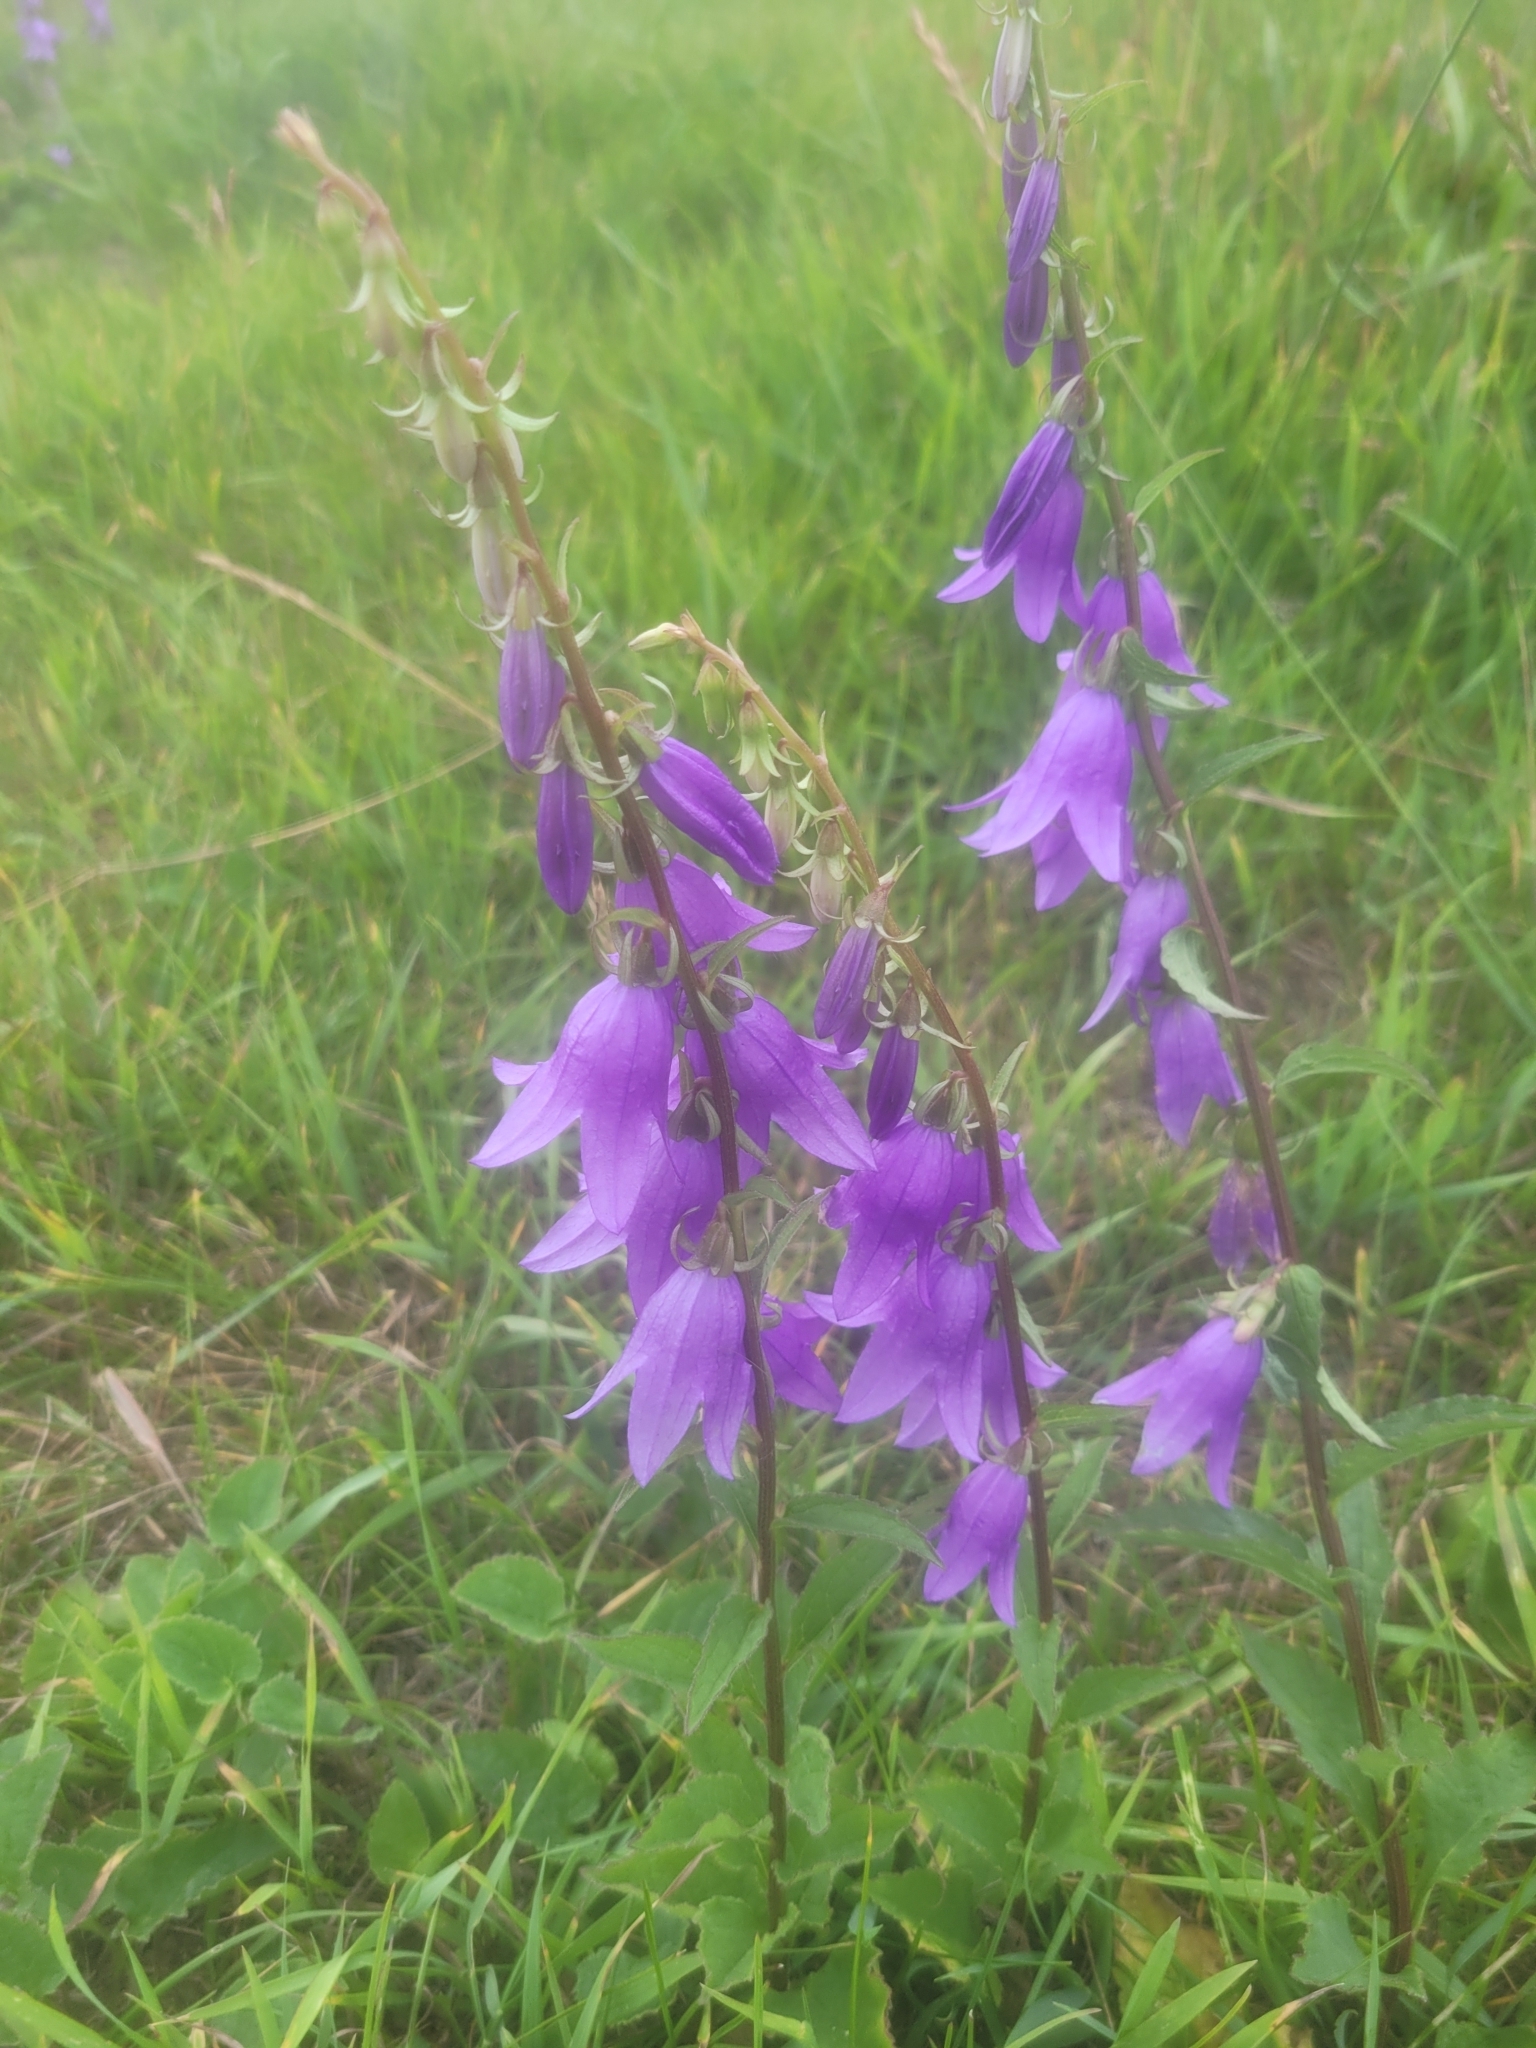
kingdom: Plantae
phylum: Tracheophyta
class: Magnoliopsida
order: Asterales
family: Campanulaceae
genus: Campanula
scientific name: Campanula rapunculoides
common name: Creeping bellflower
